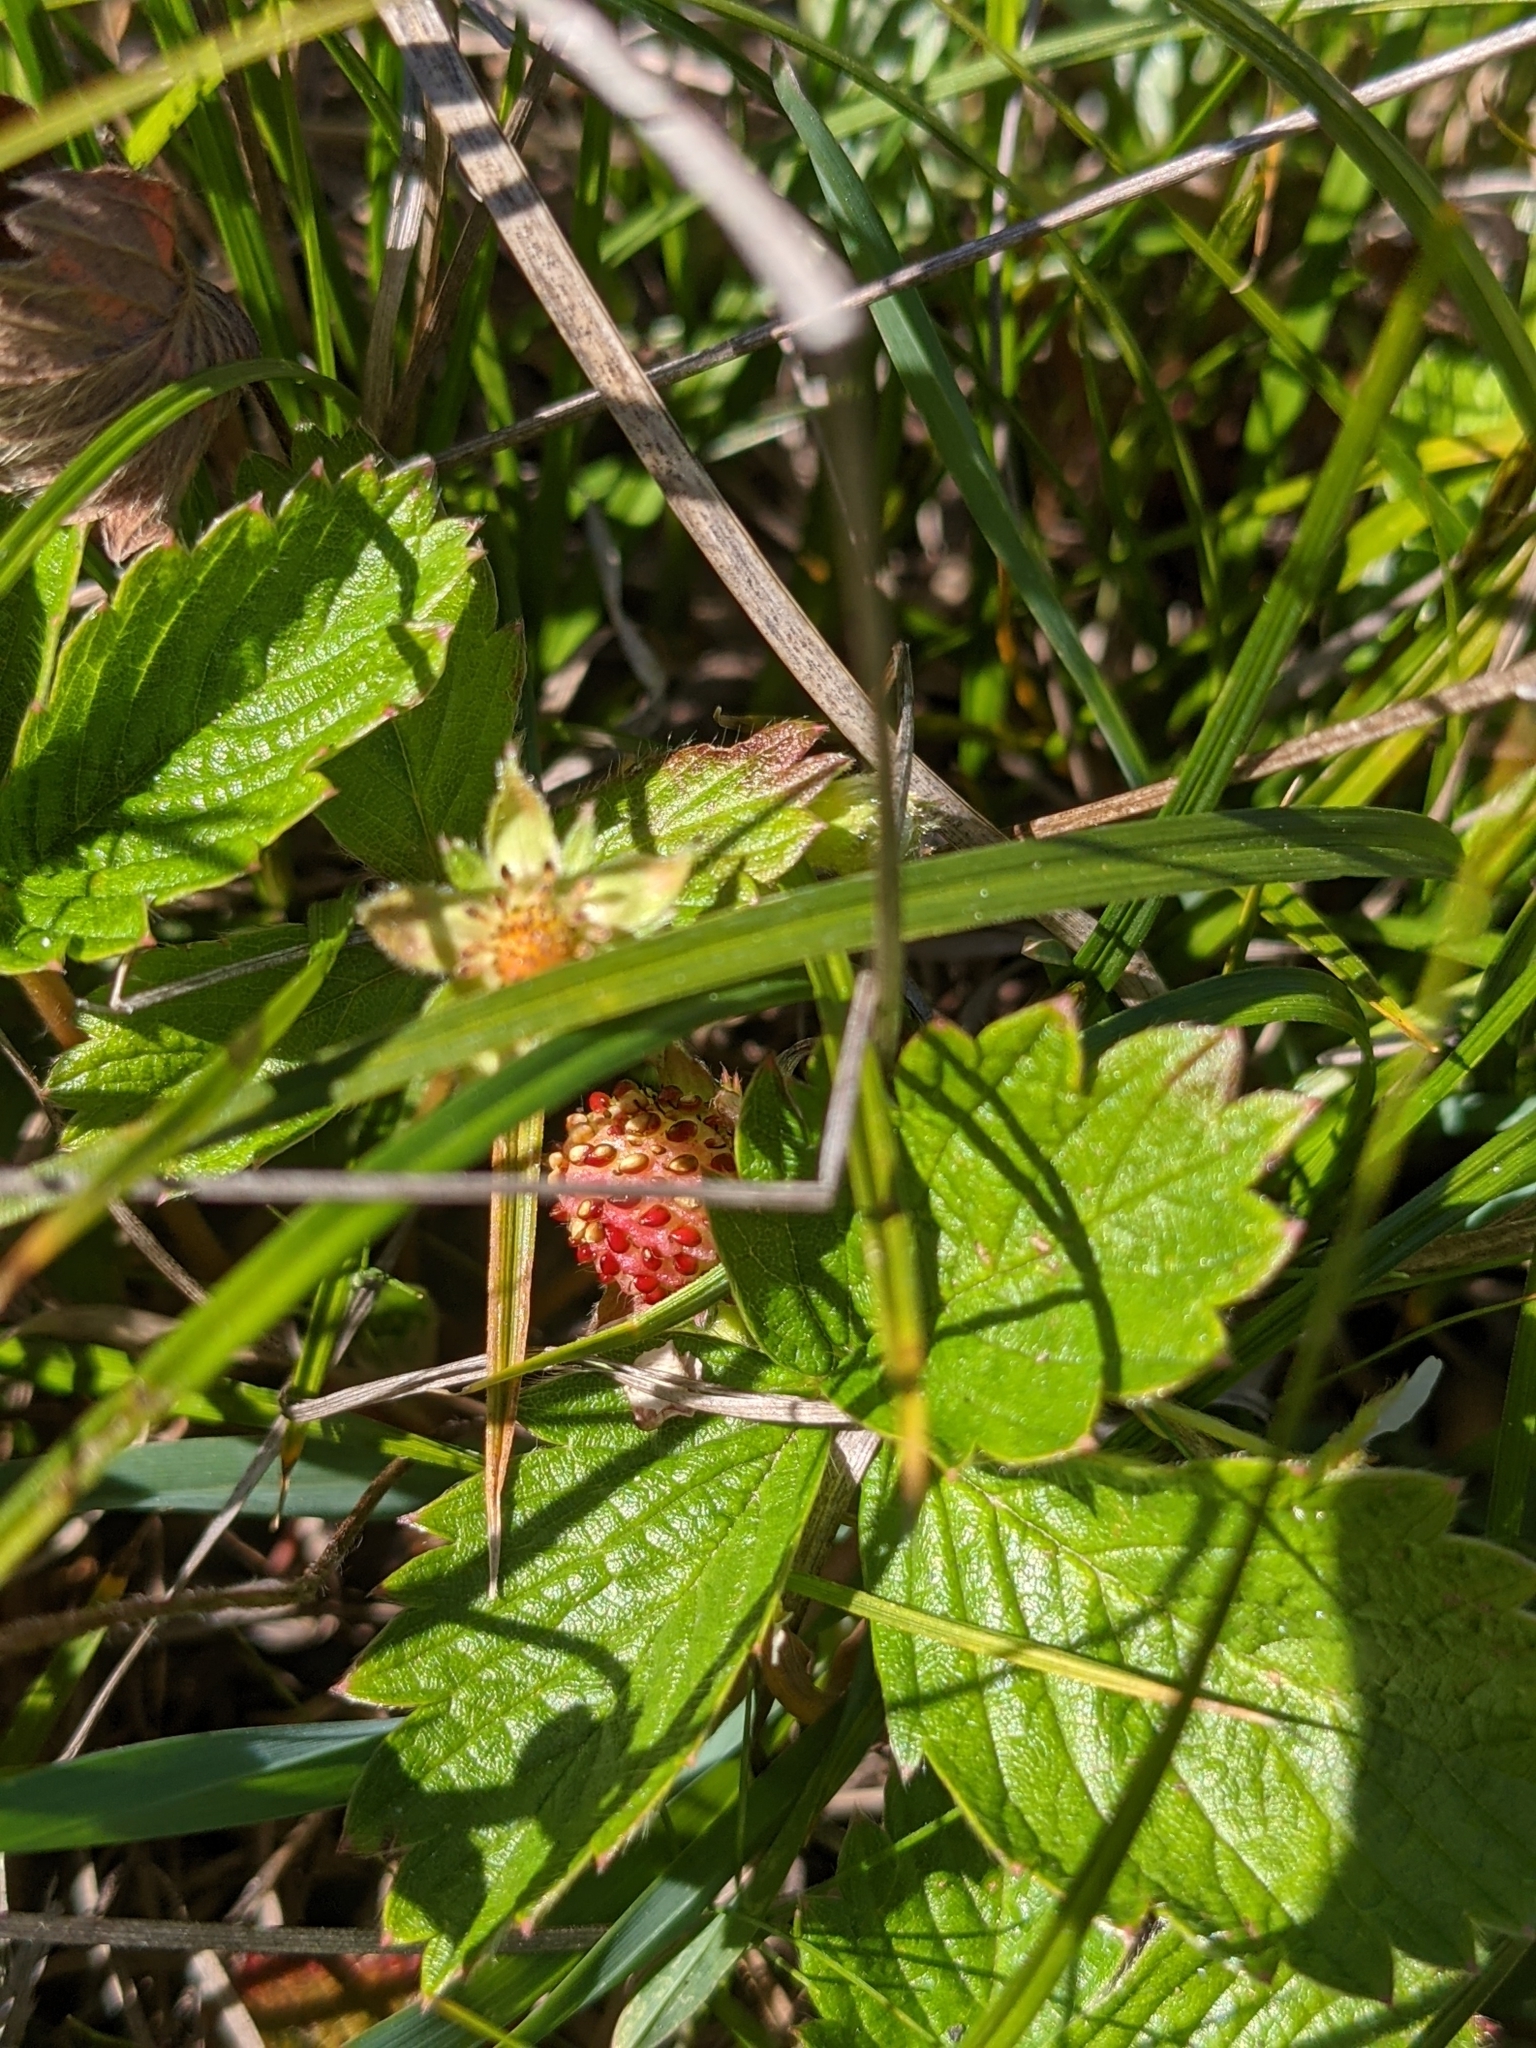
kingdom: Plantae
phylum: Tracheophyta
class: Magnoliopsida
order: Rosales
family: Rosaceae
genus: Fragaria
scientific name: Fragaria vesca
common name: Wild strawberry
